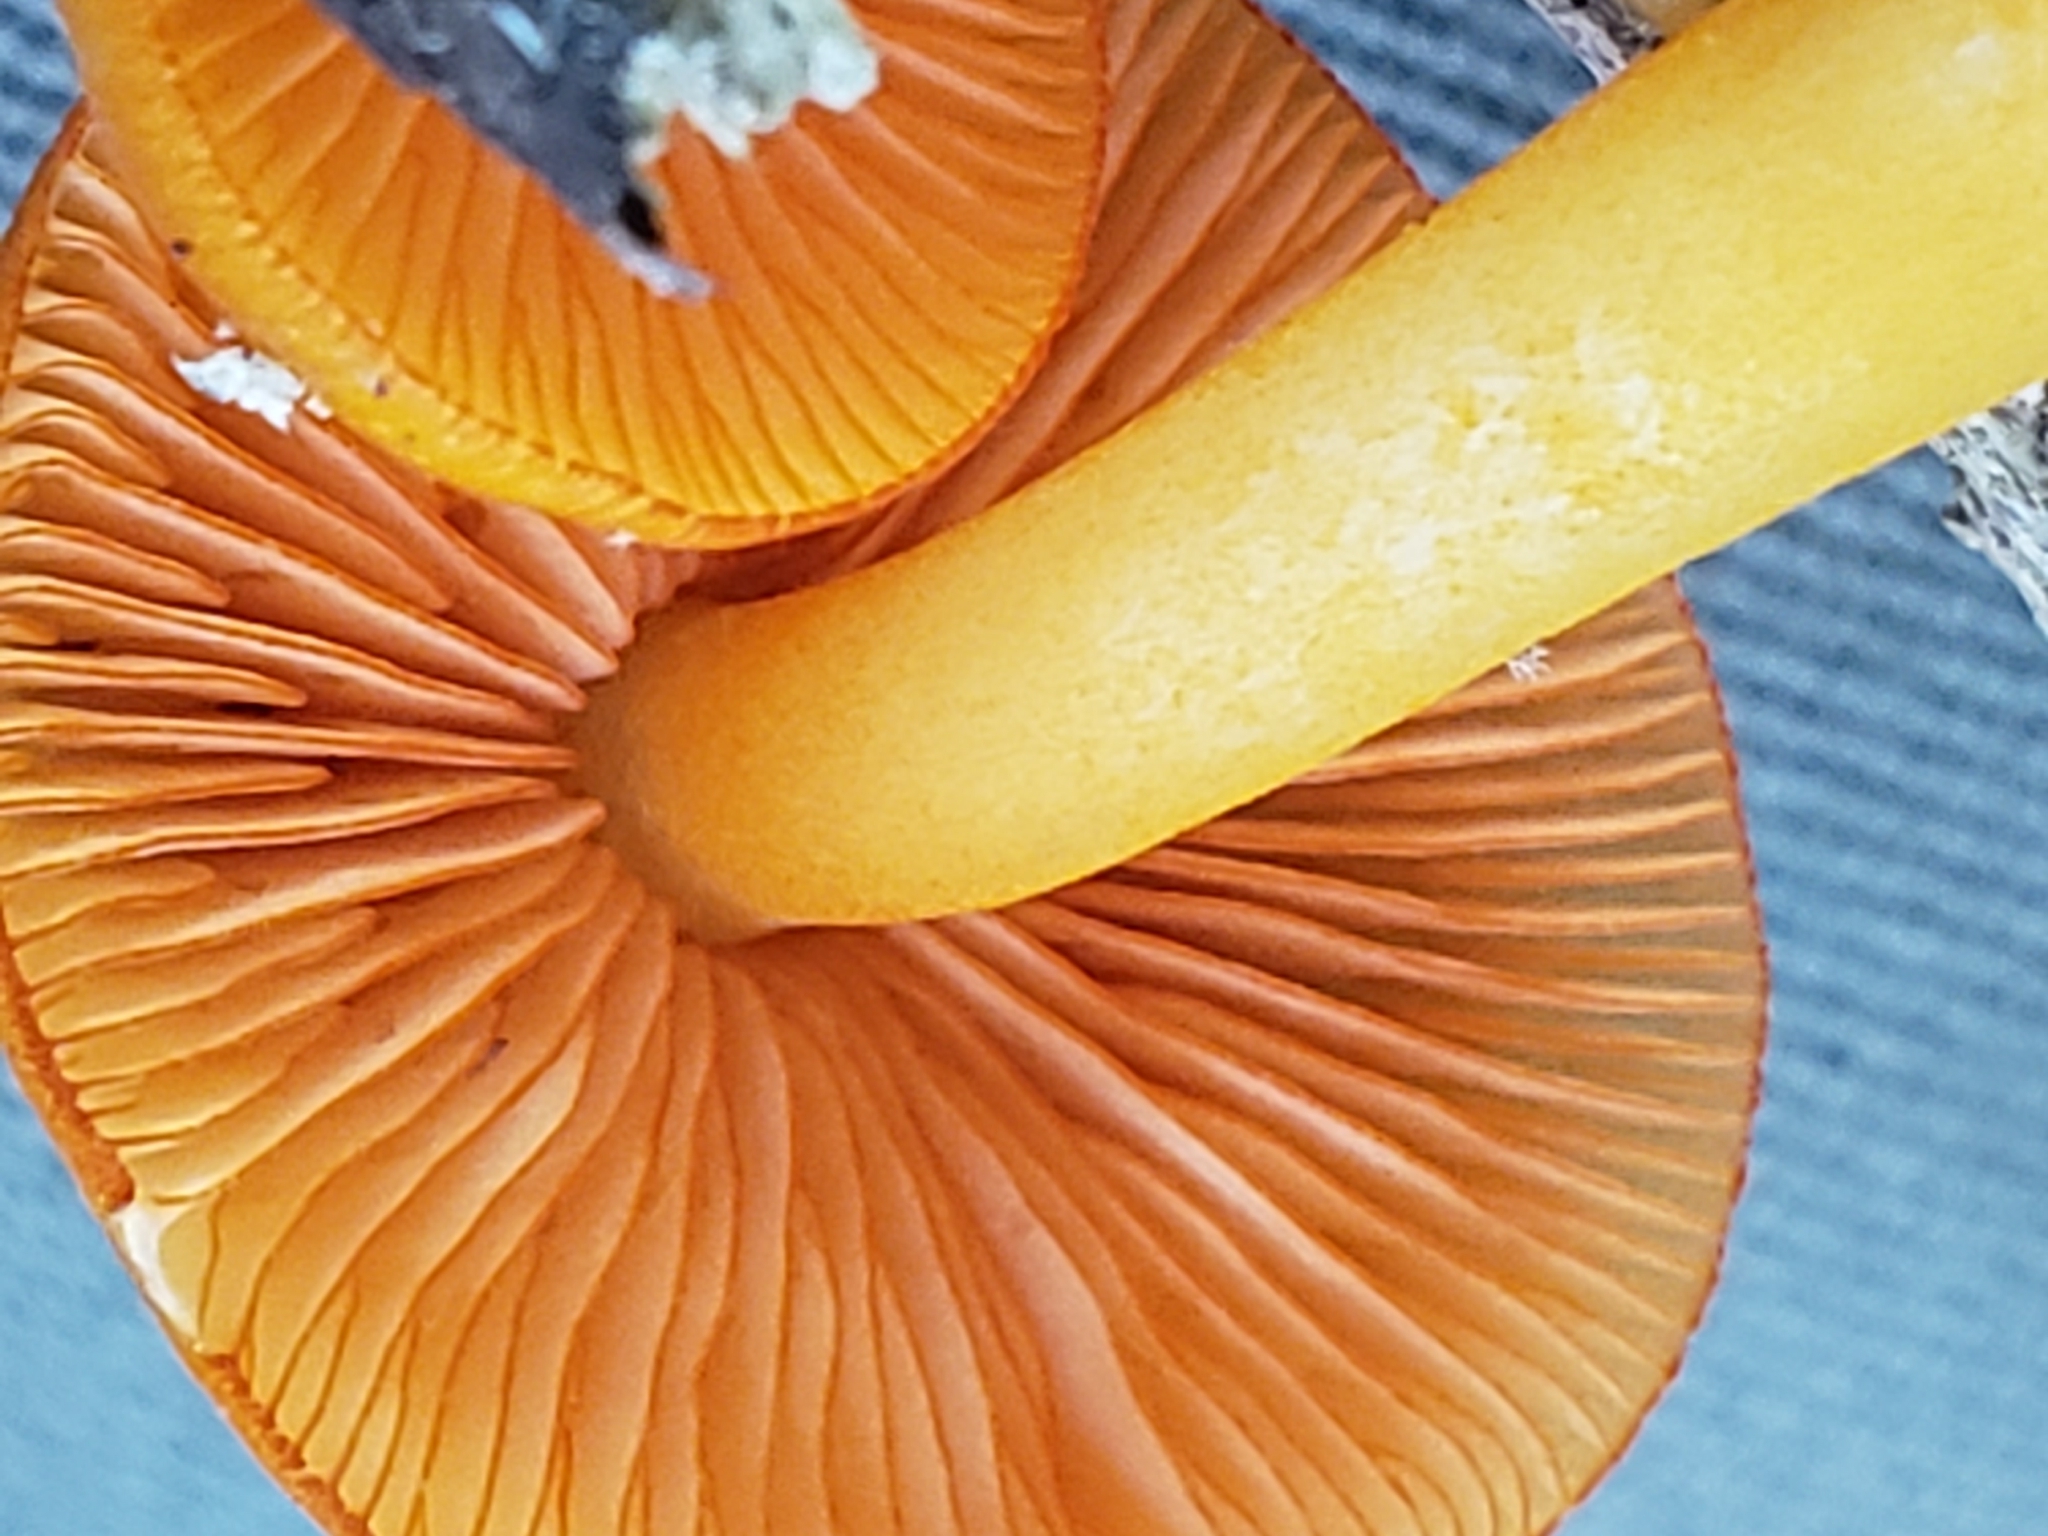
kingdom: Fungi
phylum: Basidiomycota
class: Agaricomycetes
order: Agaricales
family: Mycenaceae
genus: Mycena
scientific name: Mycena leaiana
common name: Orange mycena
